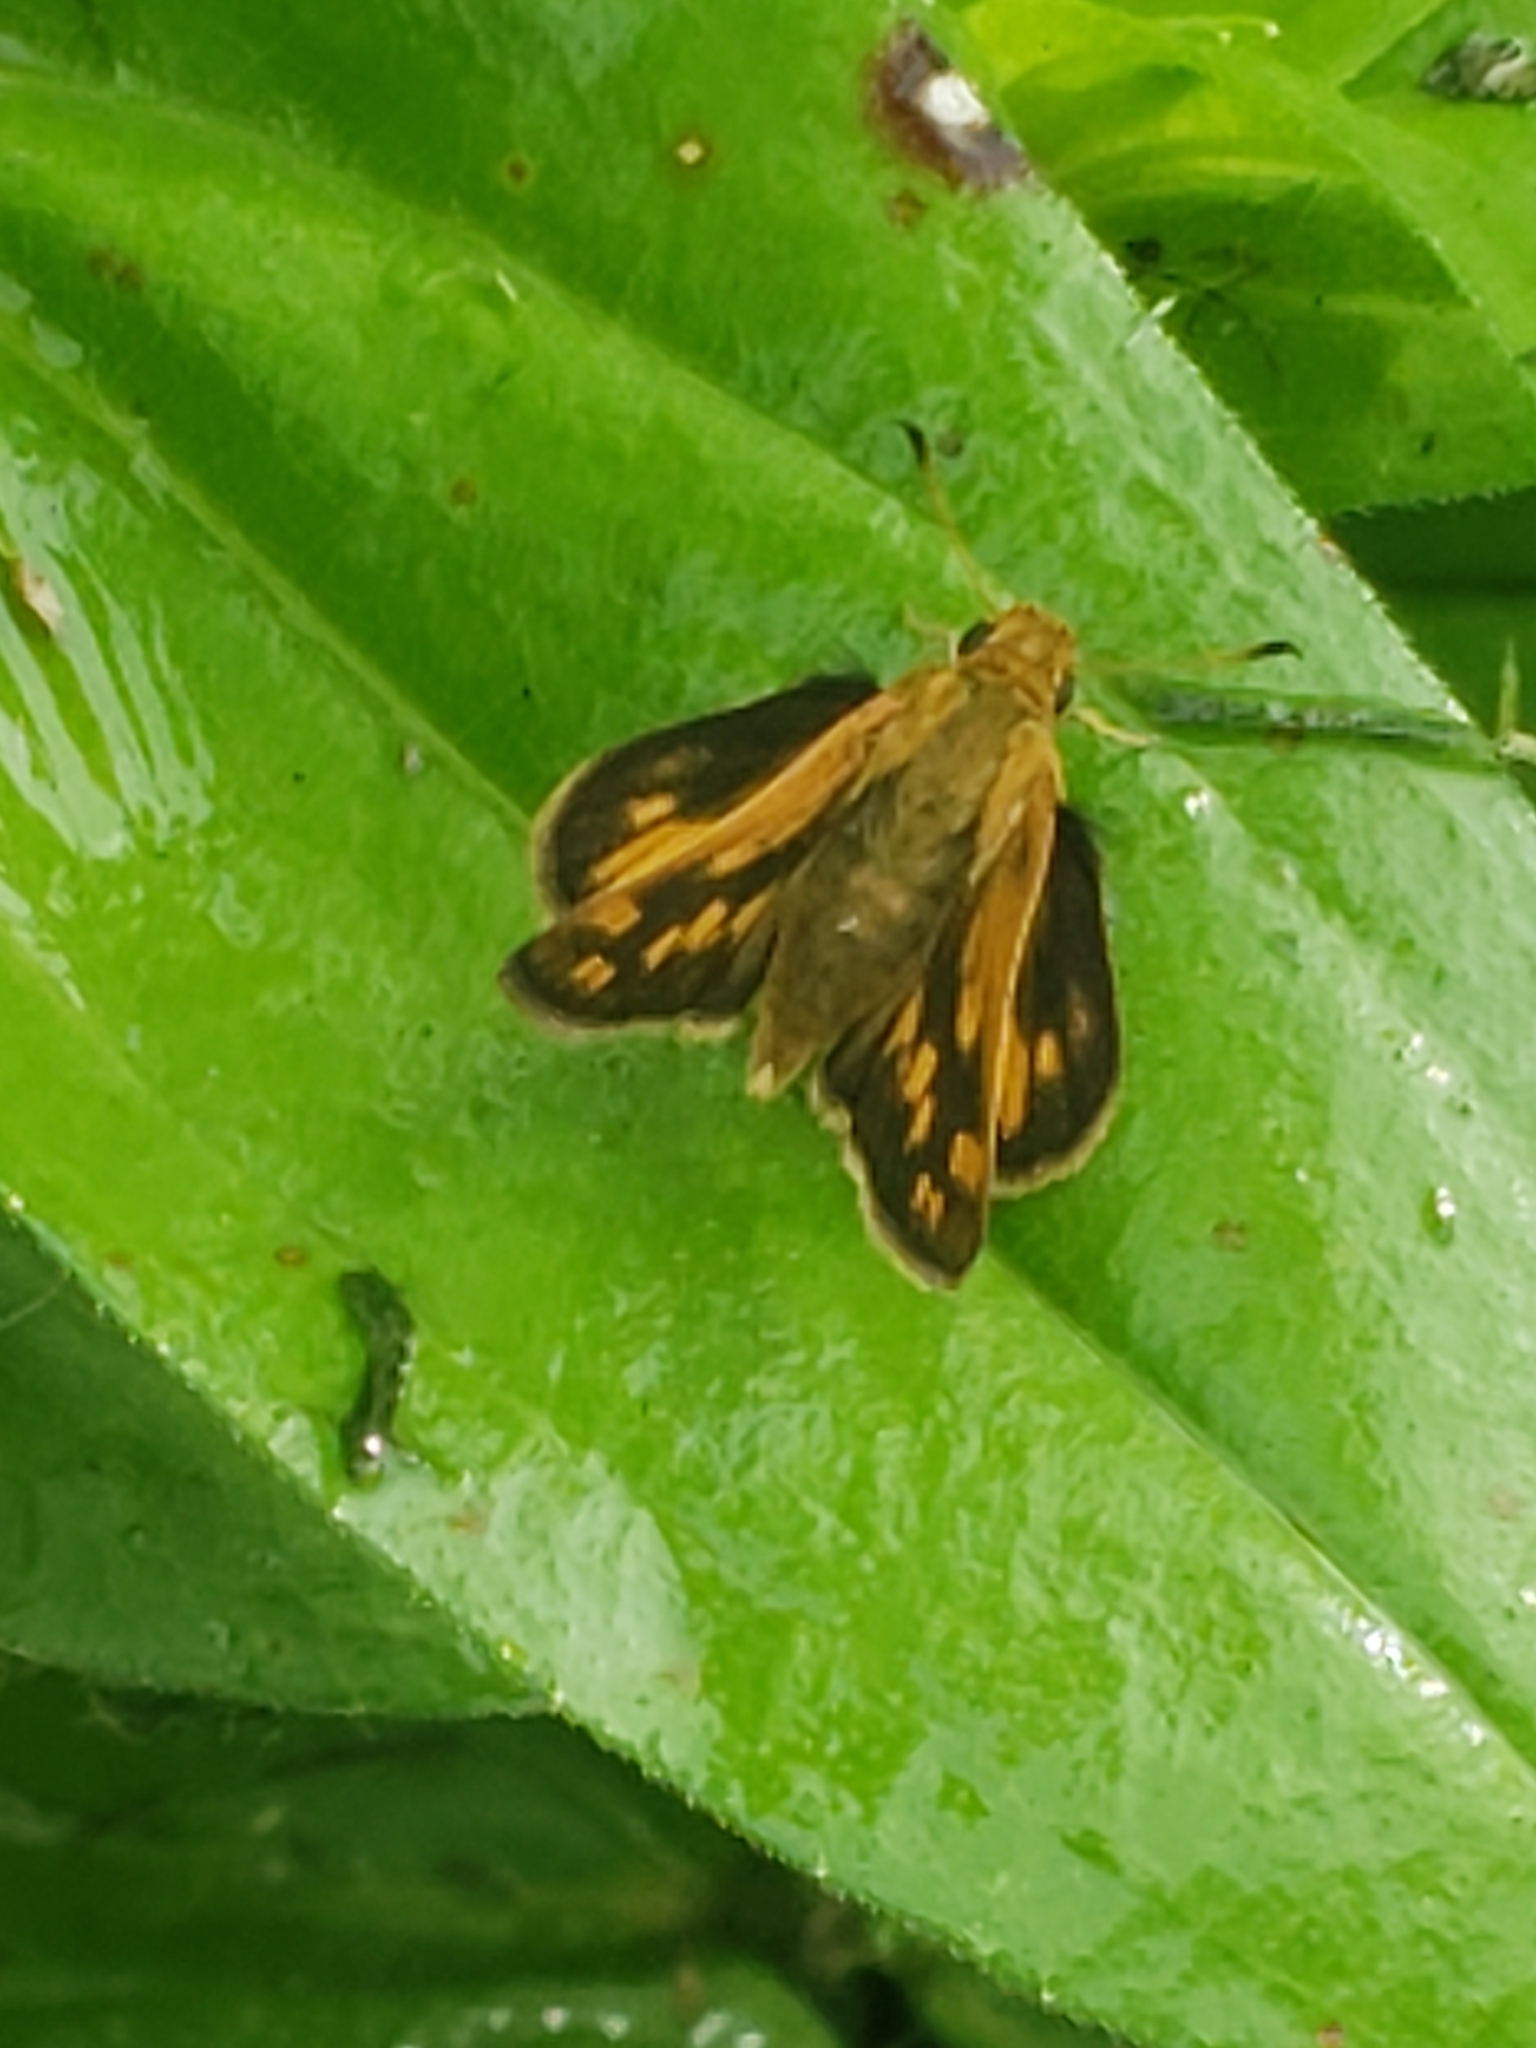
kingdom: Animalia
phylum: Arthropoda
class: Insecta
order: Lepidoptera
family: Hesperiidae
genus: Polites
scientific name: Polites coras
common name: Peck's skipper
